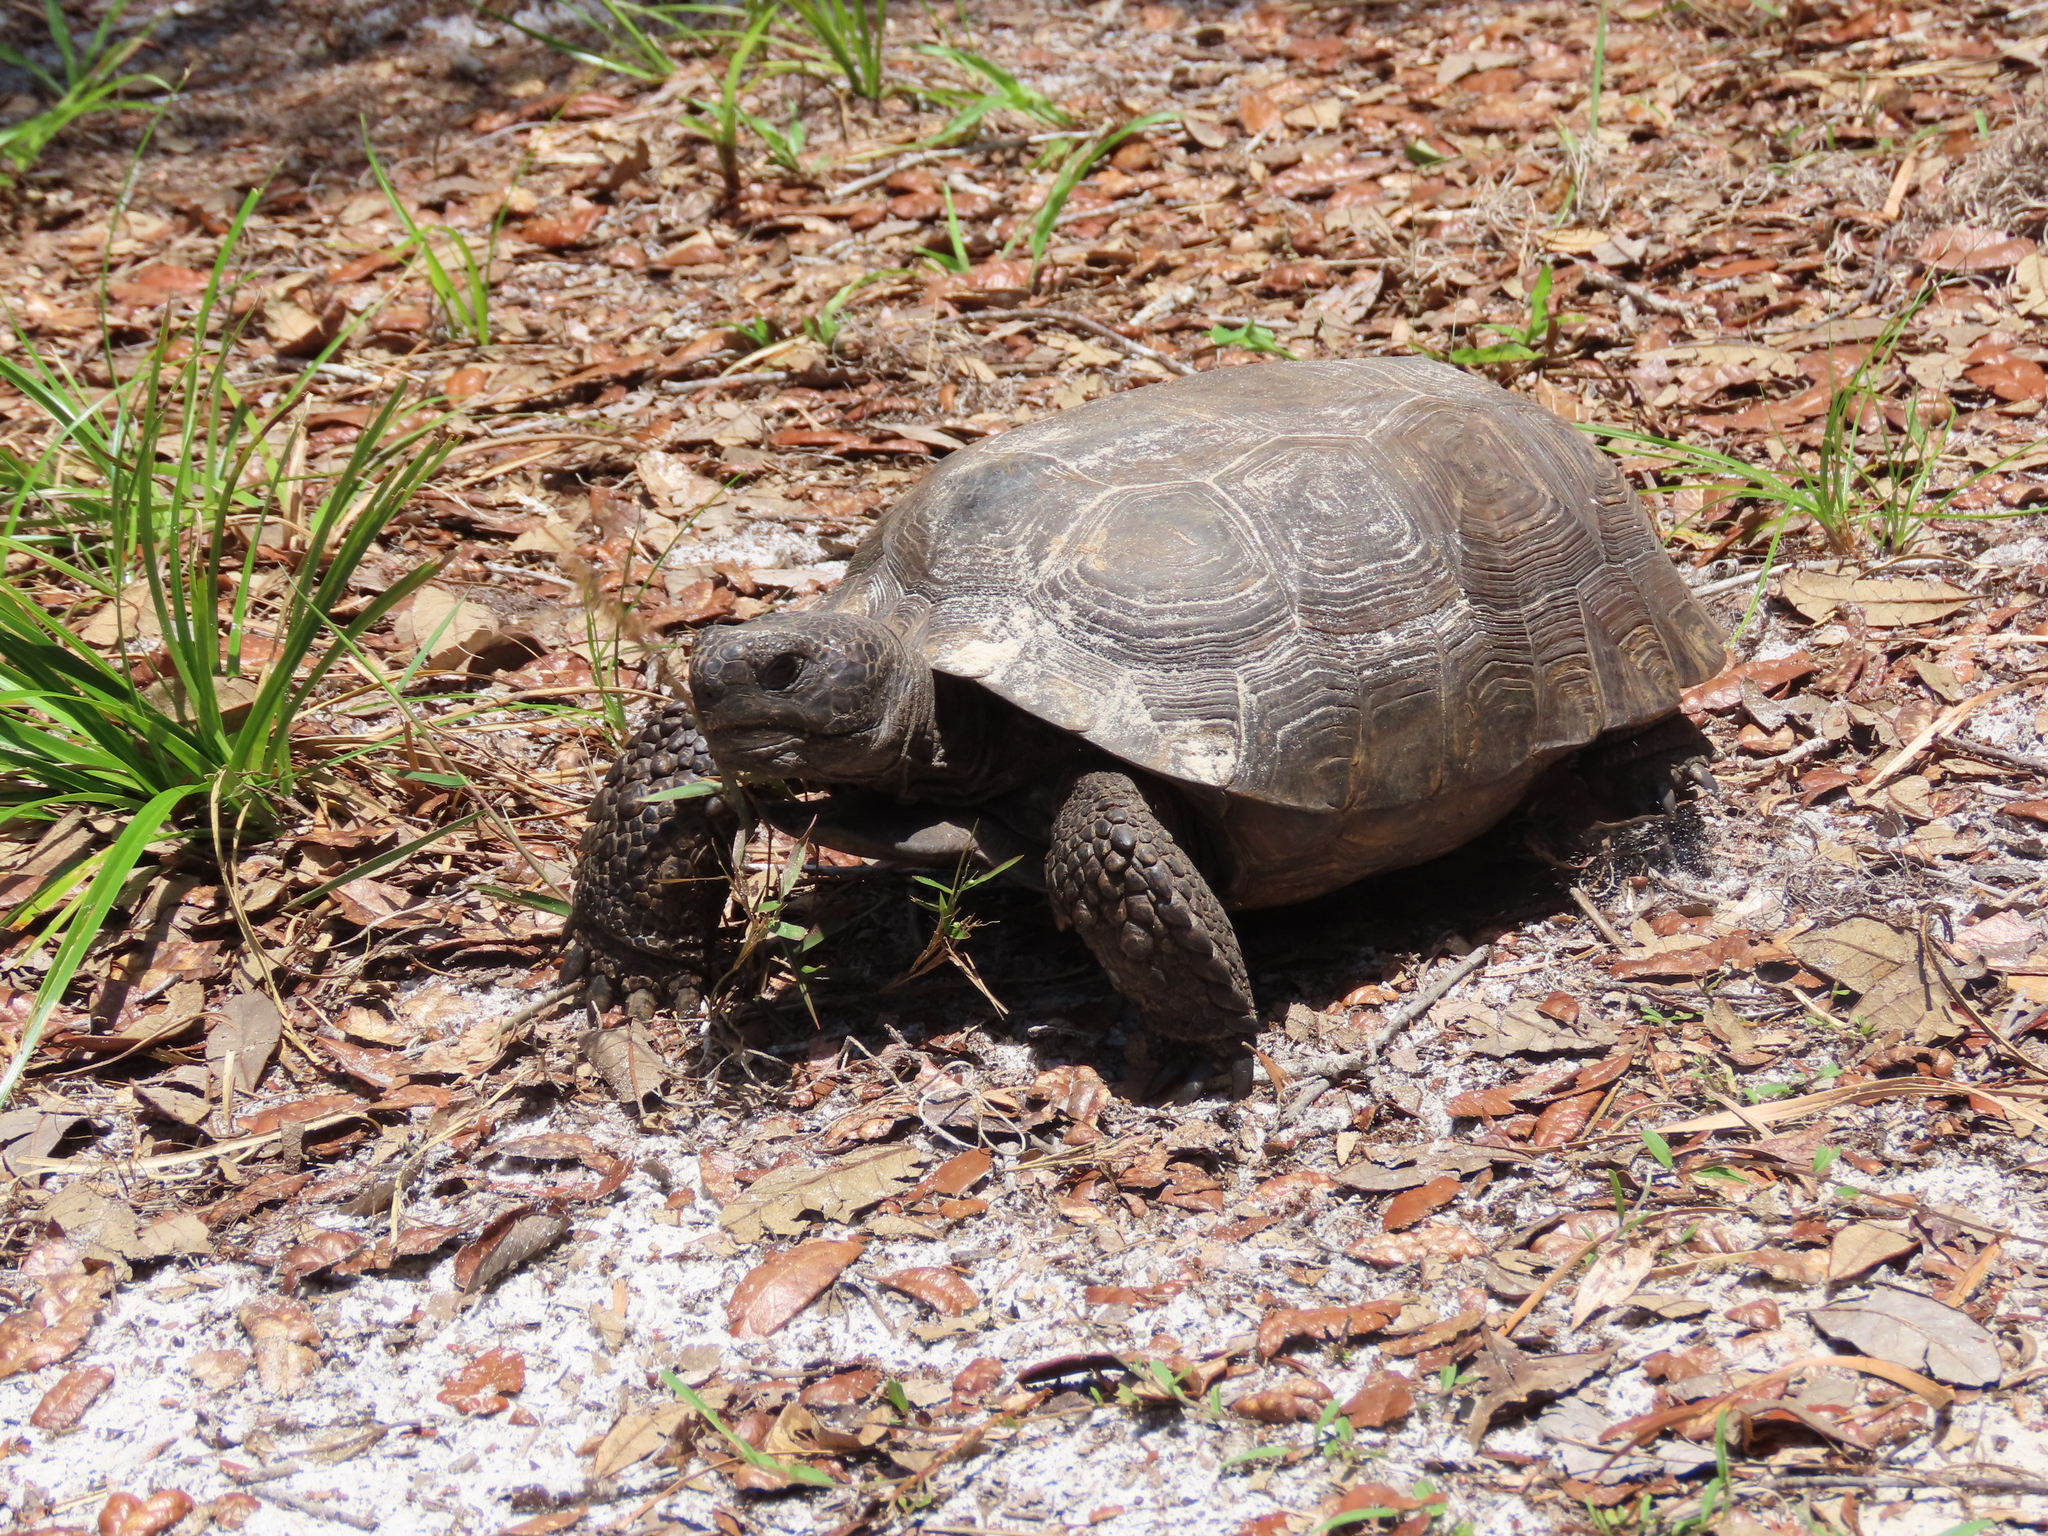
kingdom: Animalia
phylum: Chordata
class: Testudines
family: Testudinidae
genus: Gopherus
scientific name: Gopherus polyphemus
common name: Florida gopher tortoise
